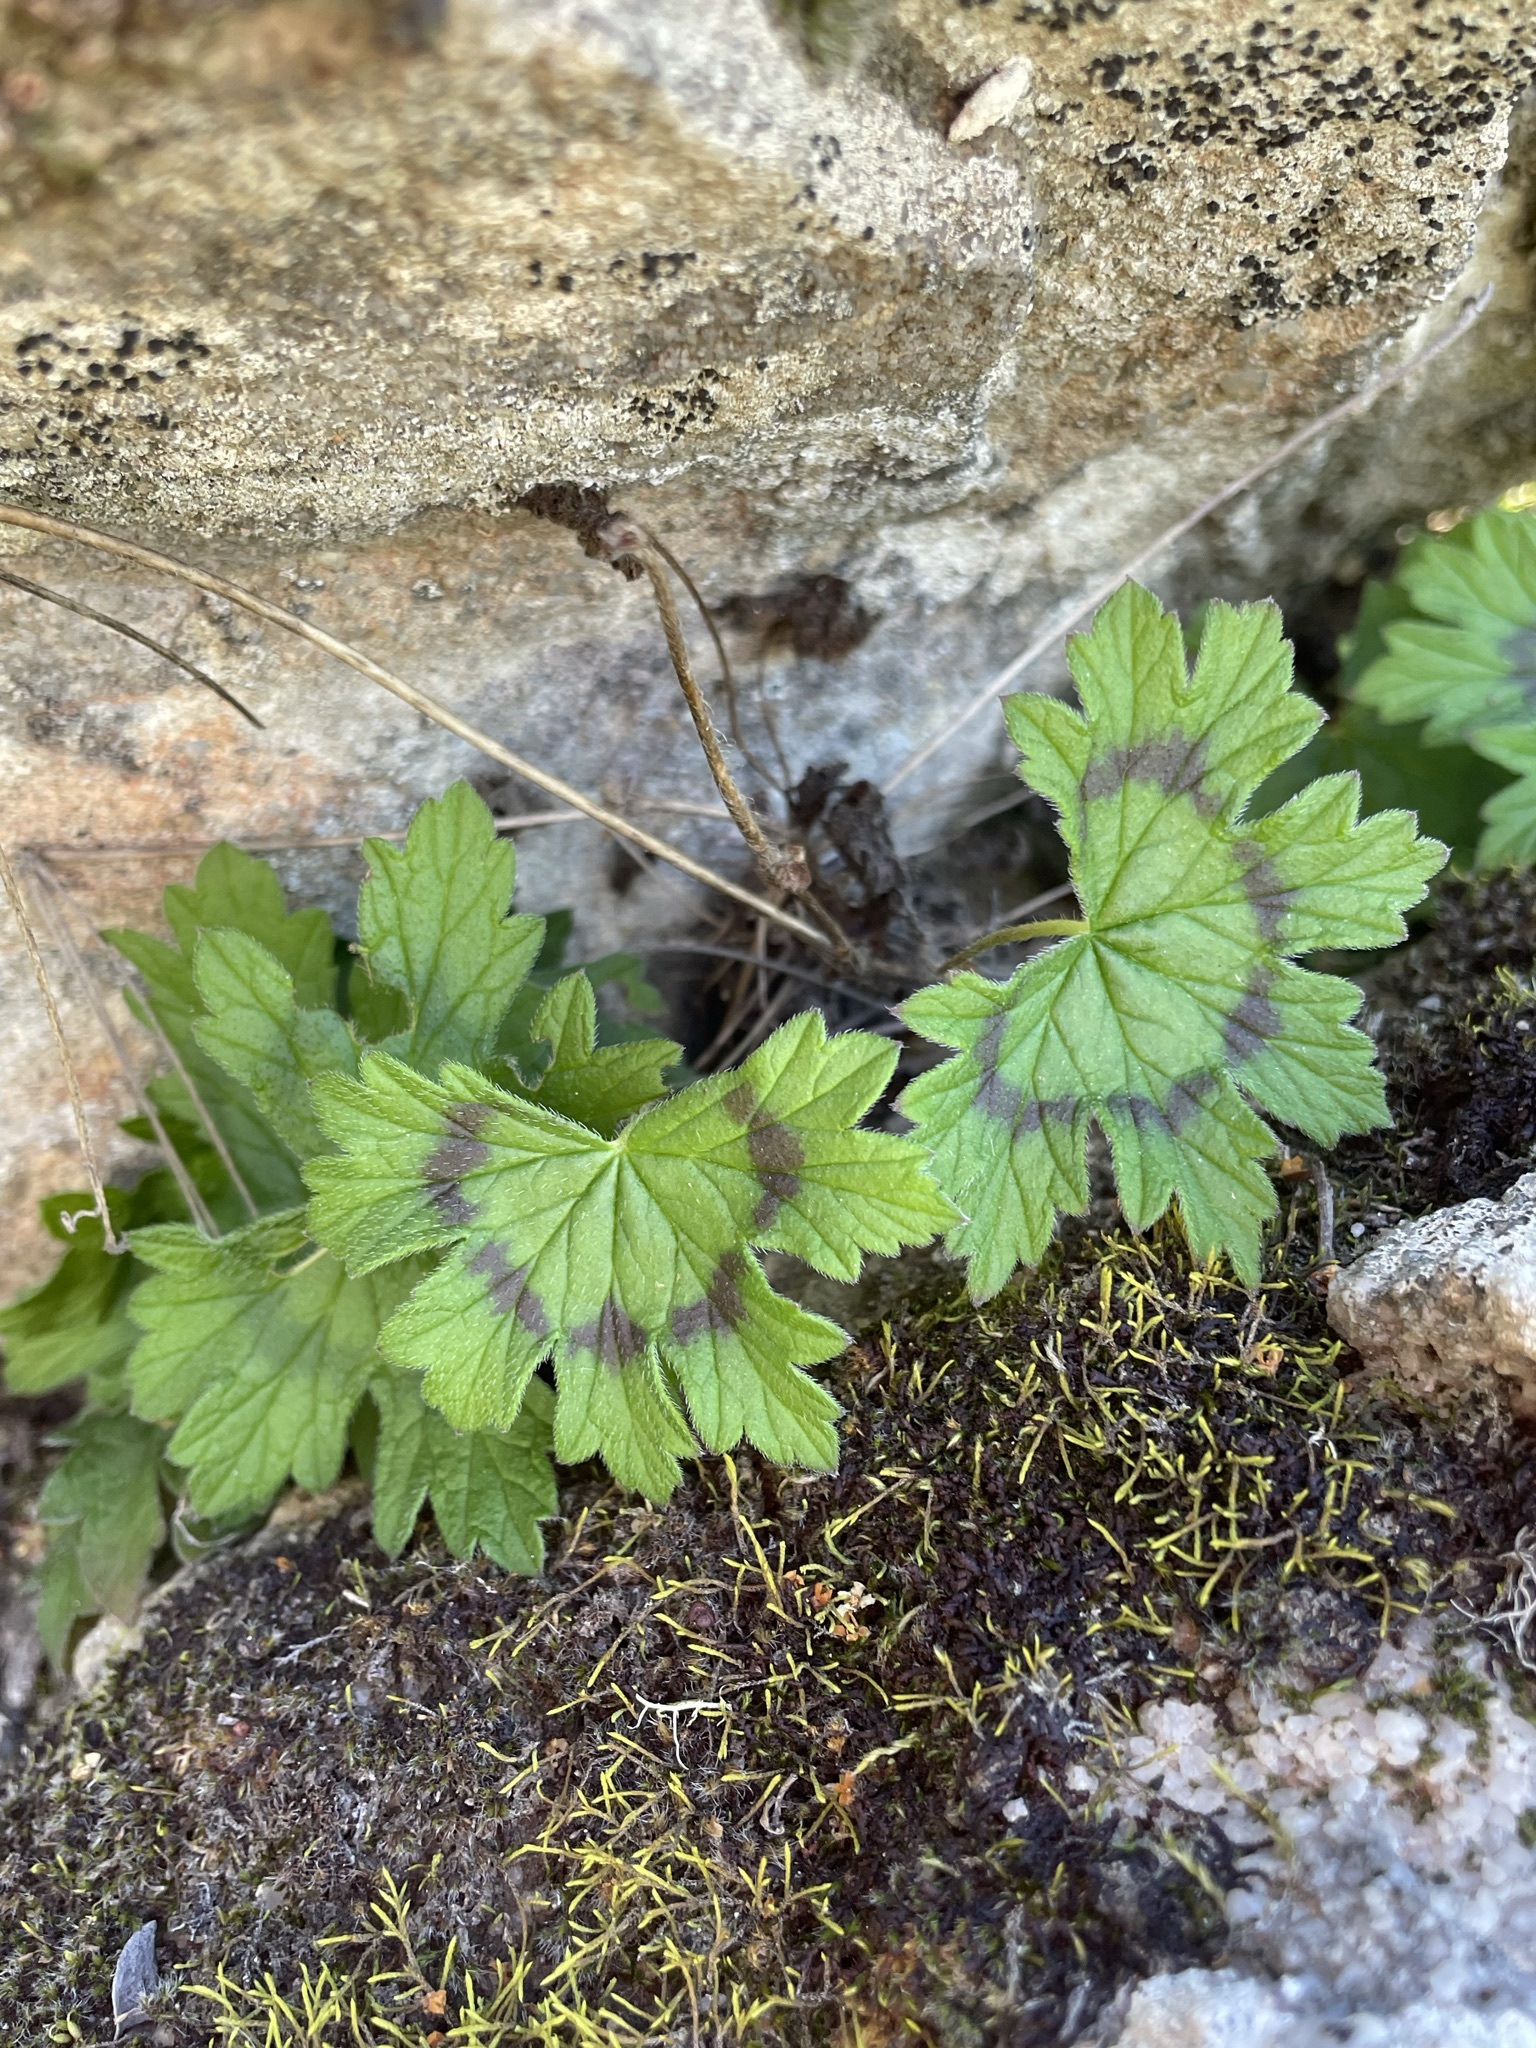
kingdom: Plantae
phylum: Tracheophyta
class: Magnoliopsida
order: Geraniales
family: Geraniaceae
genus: Pelargonium
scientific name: Pelargonium articulatum
